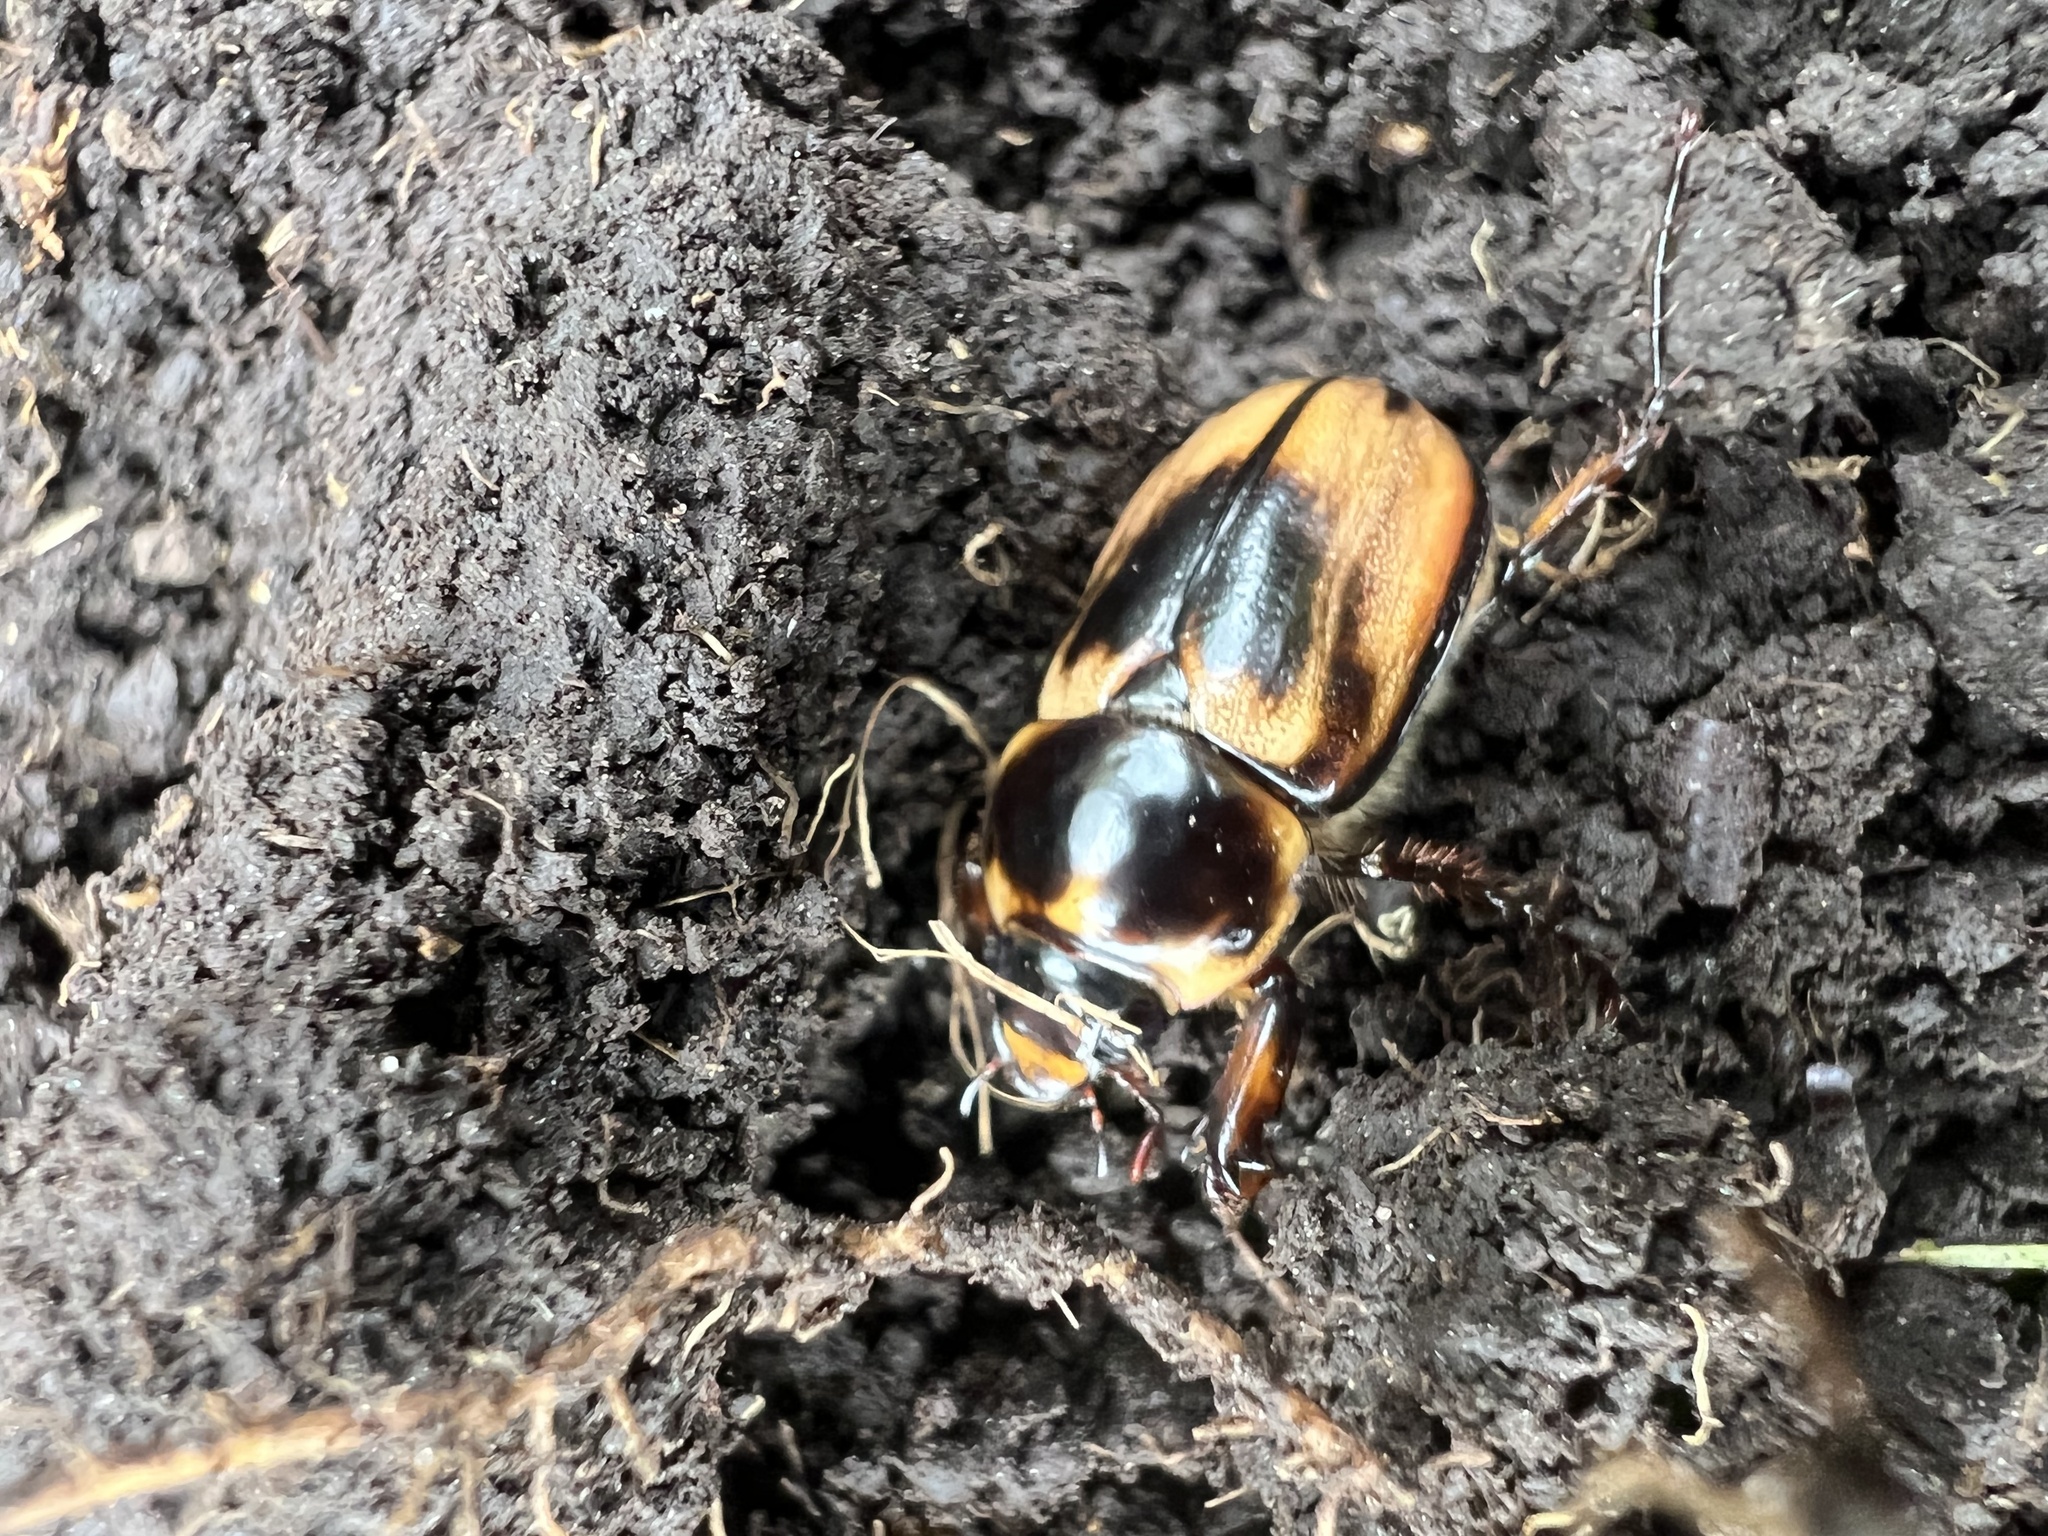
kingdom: Animalia
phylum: Arthropoda
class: Insecta
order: Coleoptera
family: Scarabaeidae
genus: Ancognatha
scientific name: Ancognatha ustulata
